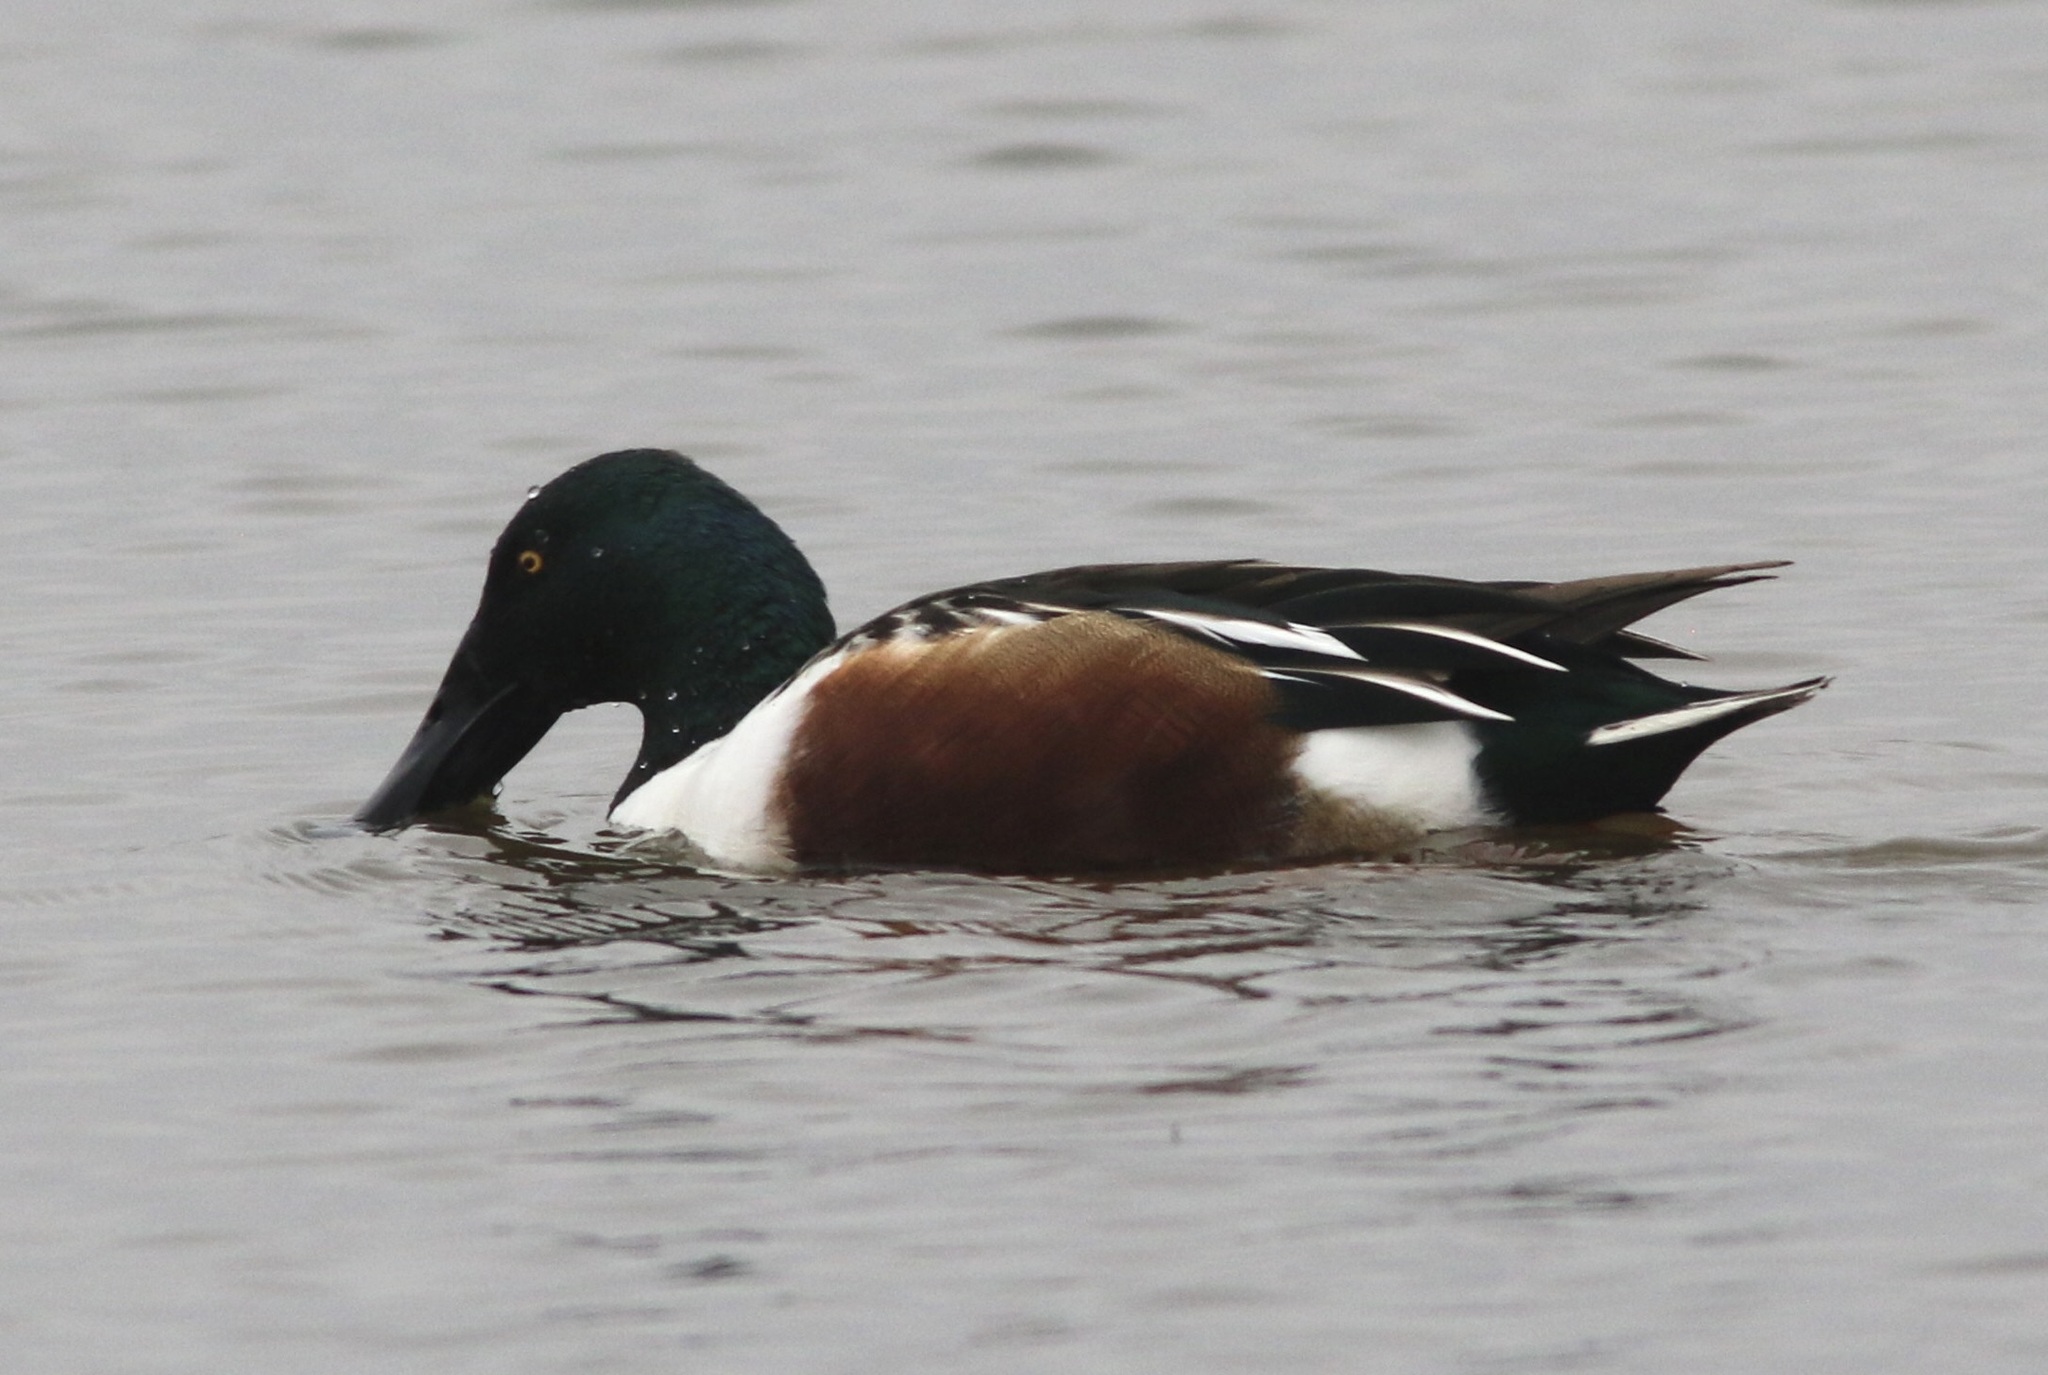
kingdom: Animalia
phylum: Chordata
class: Aves
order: Anseriformes
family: Anatidae
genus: Spatula
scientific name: Spatula clypeata
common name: Northern shoveler
